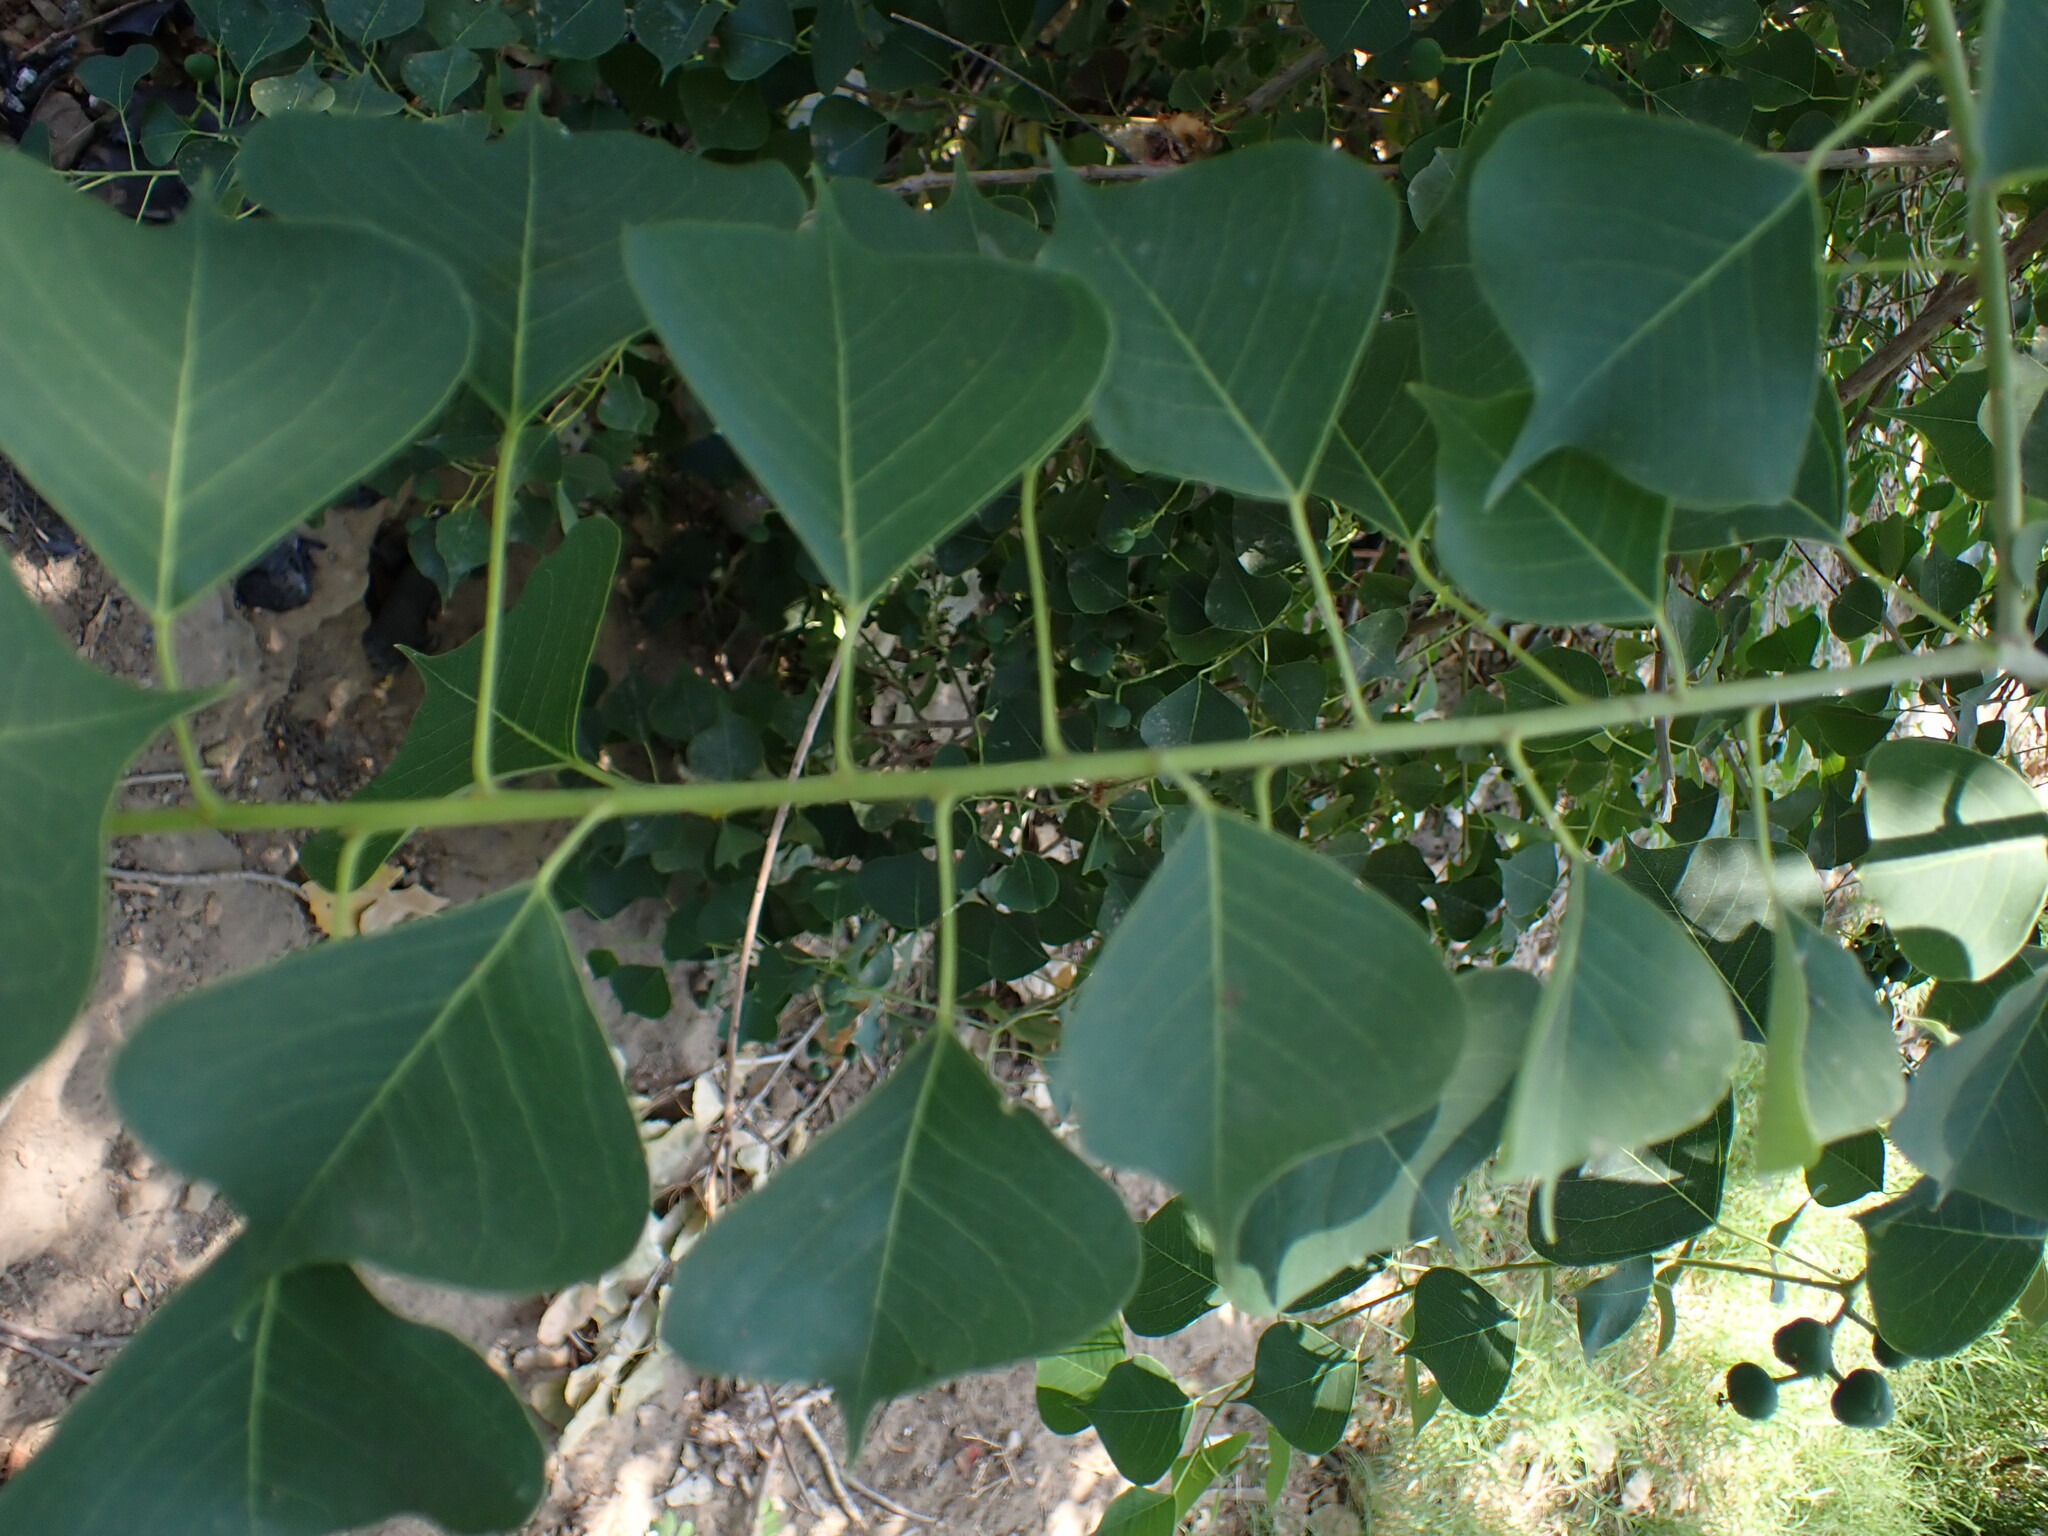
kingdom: Plantae
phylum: Tracheophyta
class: Magnoliopsida
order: Malpighiales
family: Euphorbiaceae
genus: Triadica
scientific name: Triadica sebifera
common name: Chinese tallow
